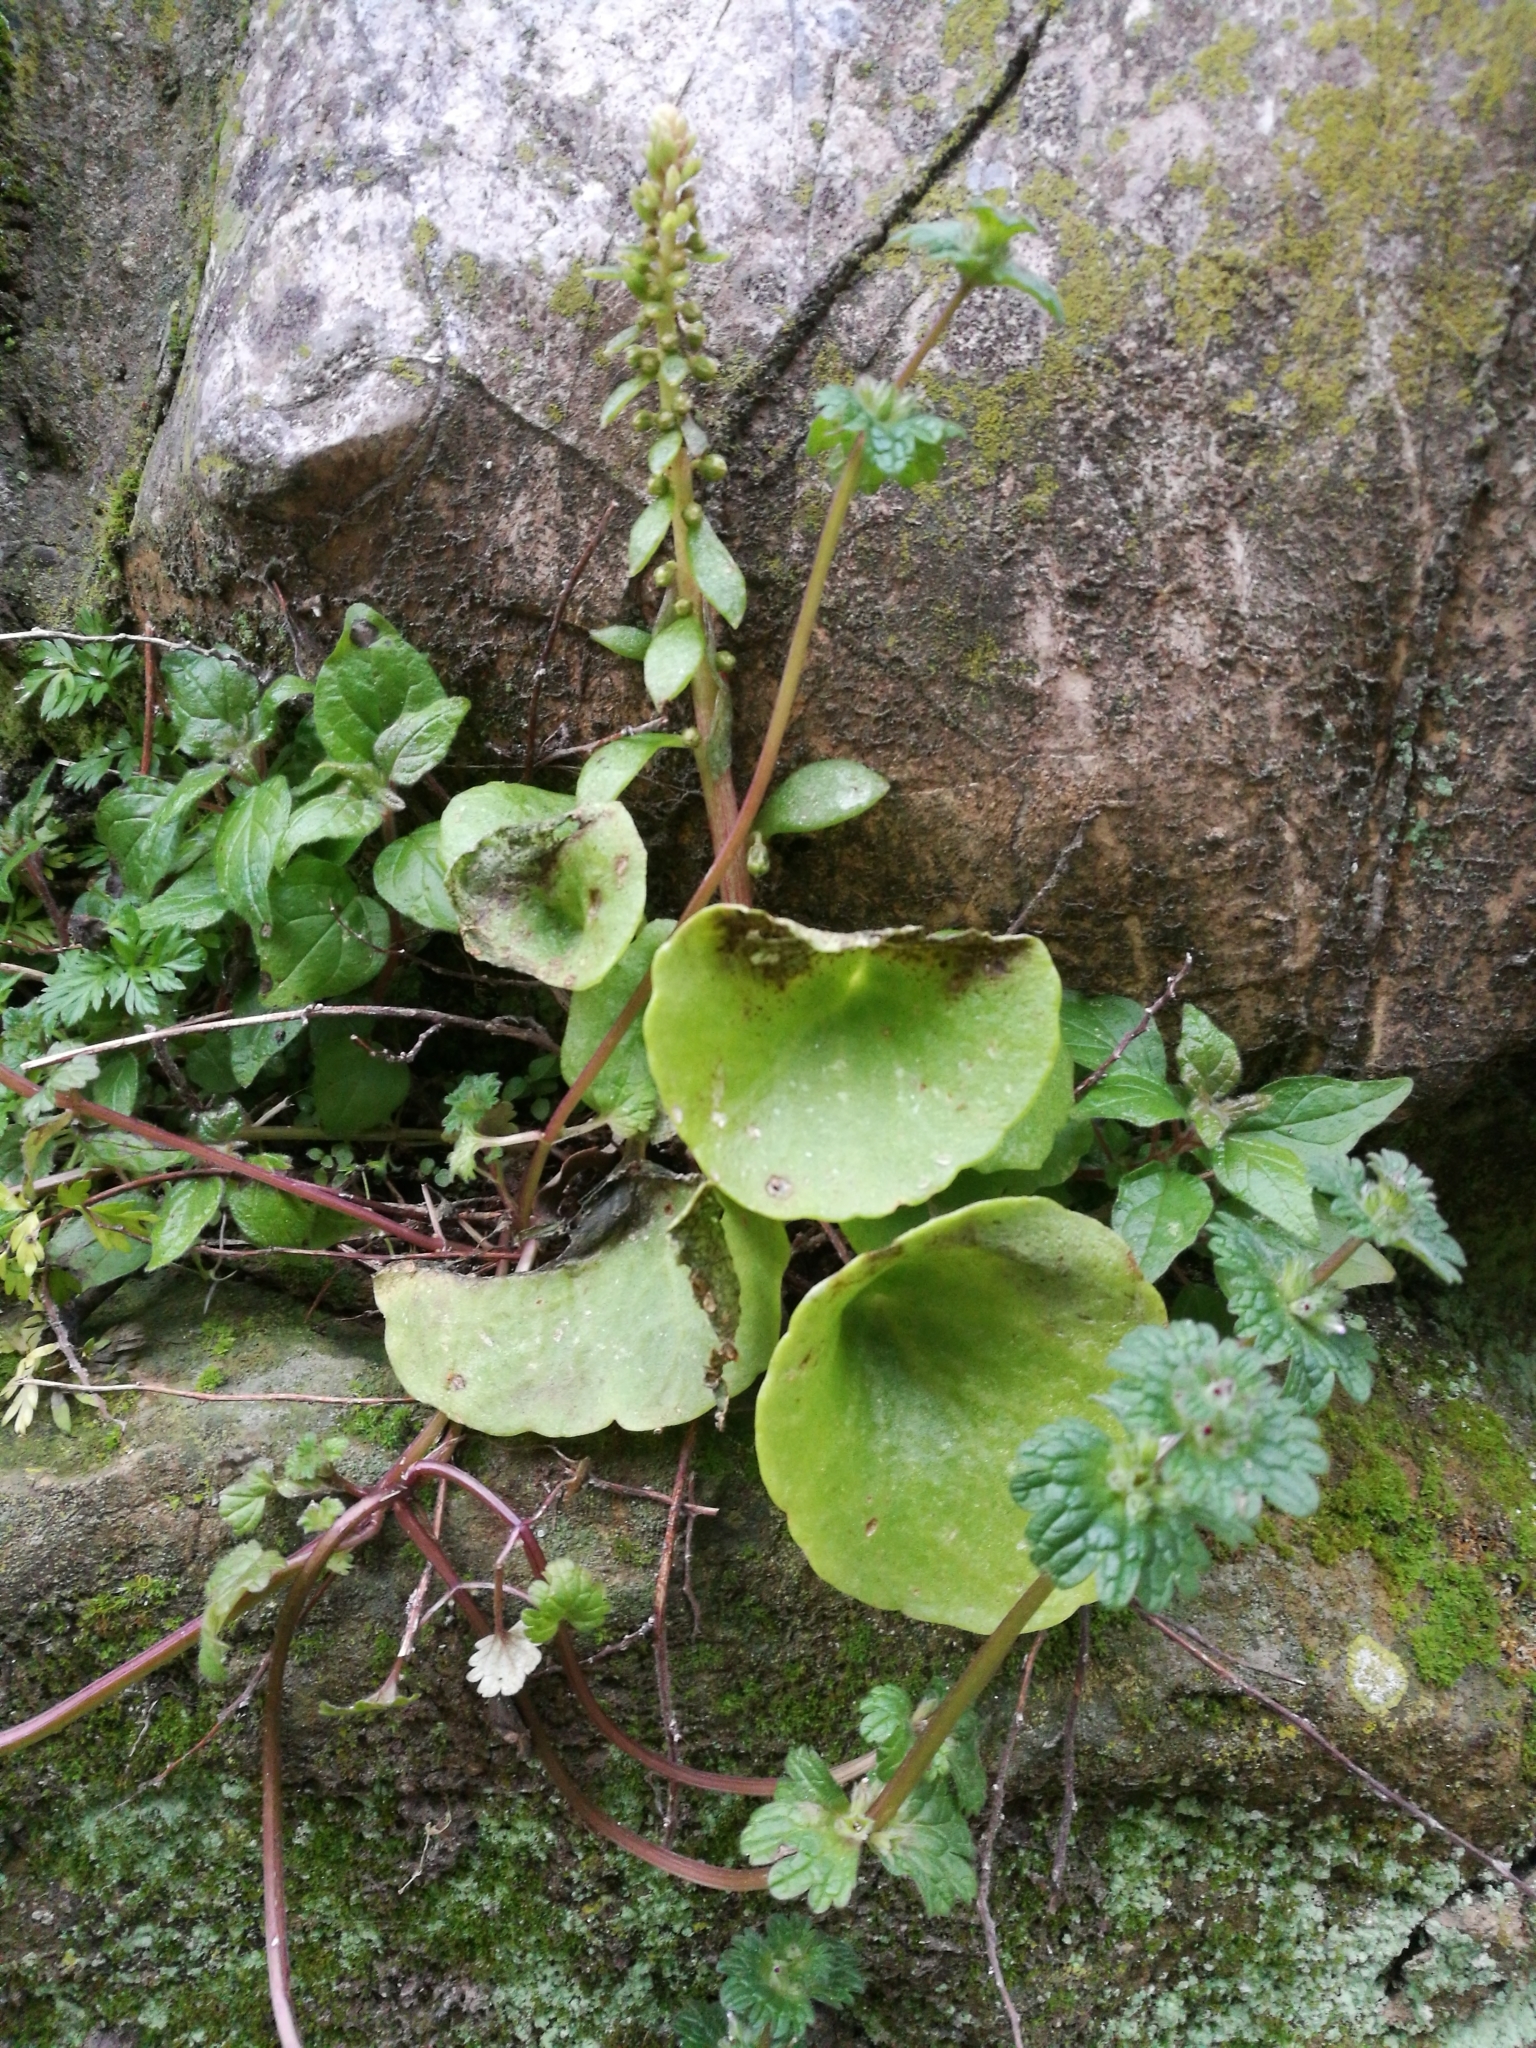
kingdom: Plantae
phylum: Tracheophyta
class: Magnoliopsida
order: Saxifragales
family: Crassulaceae
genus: Umbilicus
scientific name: Umbilicus rupestris
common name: Navelwort
